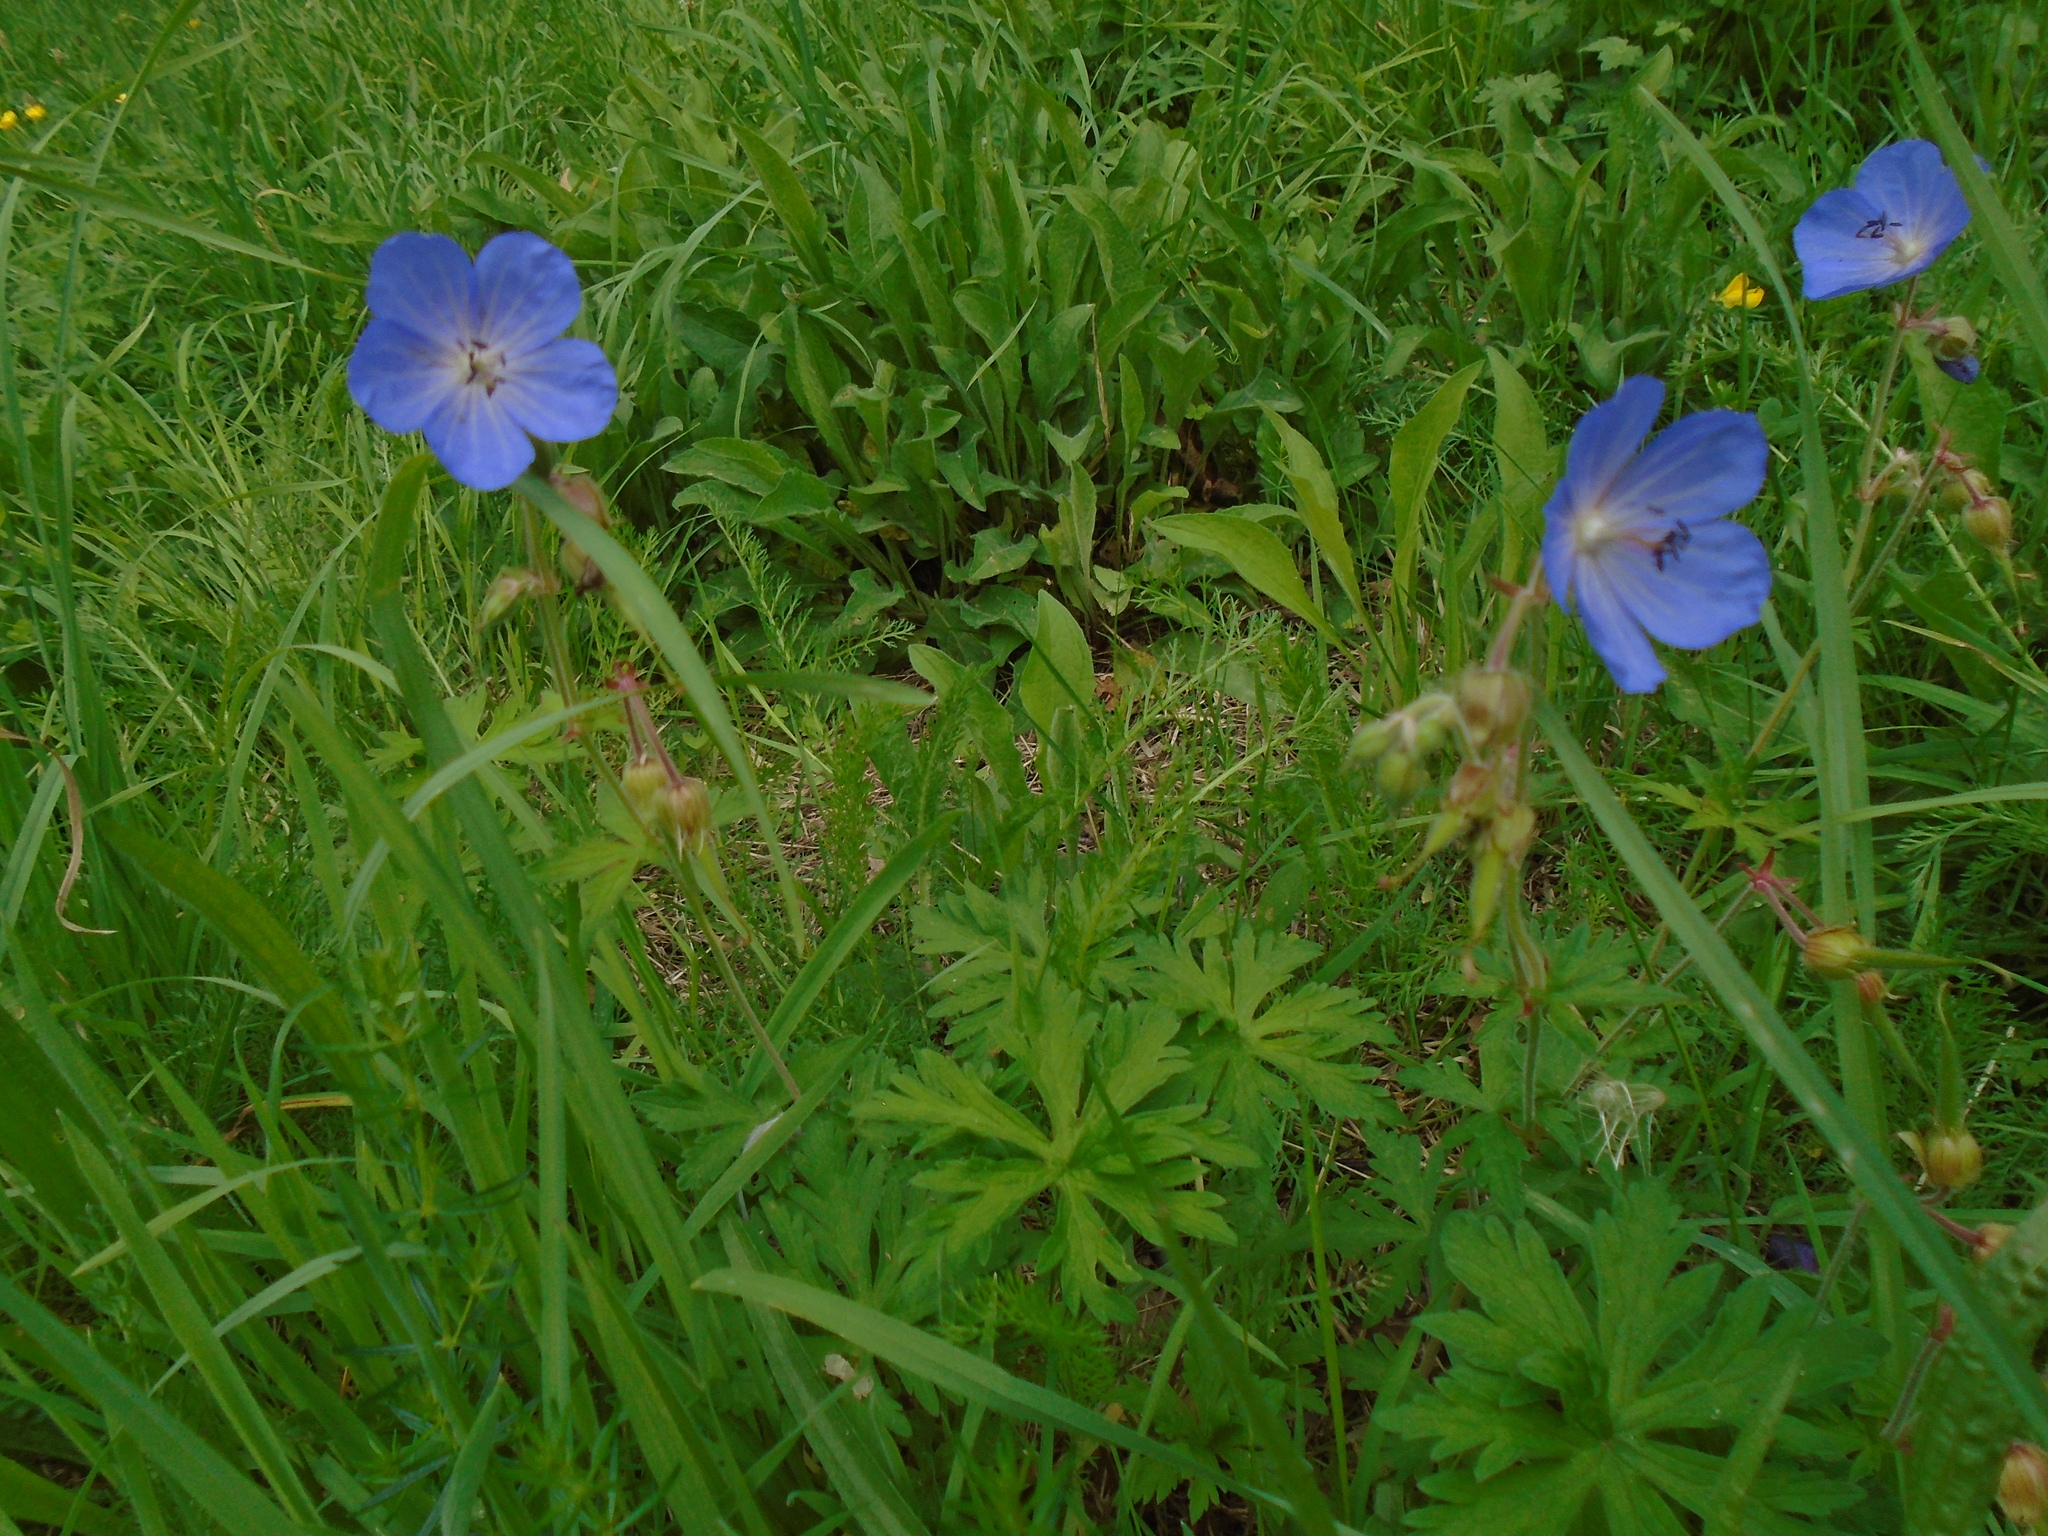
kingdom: Plantae
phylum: Tracheophyta
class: Magnoliopsida
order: Geraniales
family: Geraniaceae
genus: Geranium
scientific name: Geranium pratense
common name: Meadow crane's-bill
